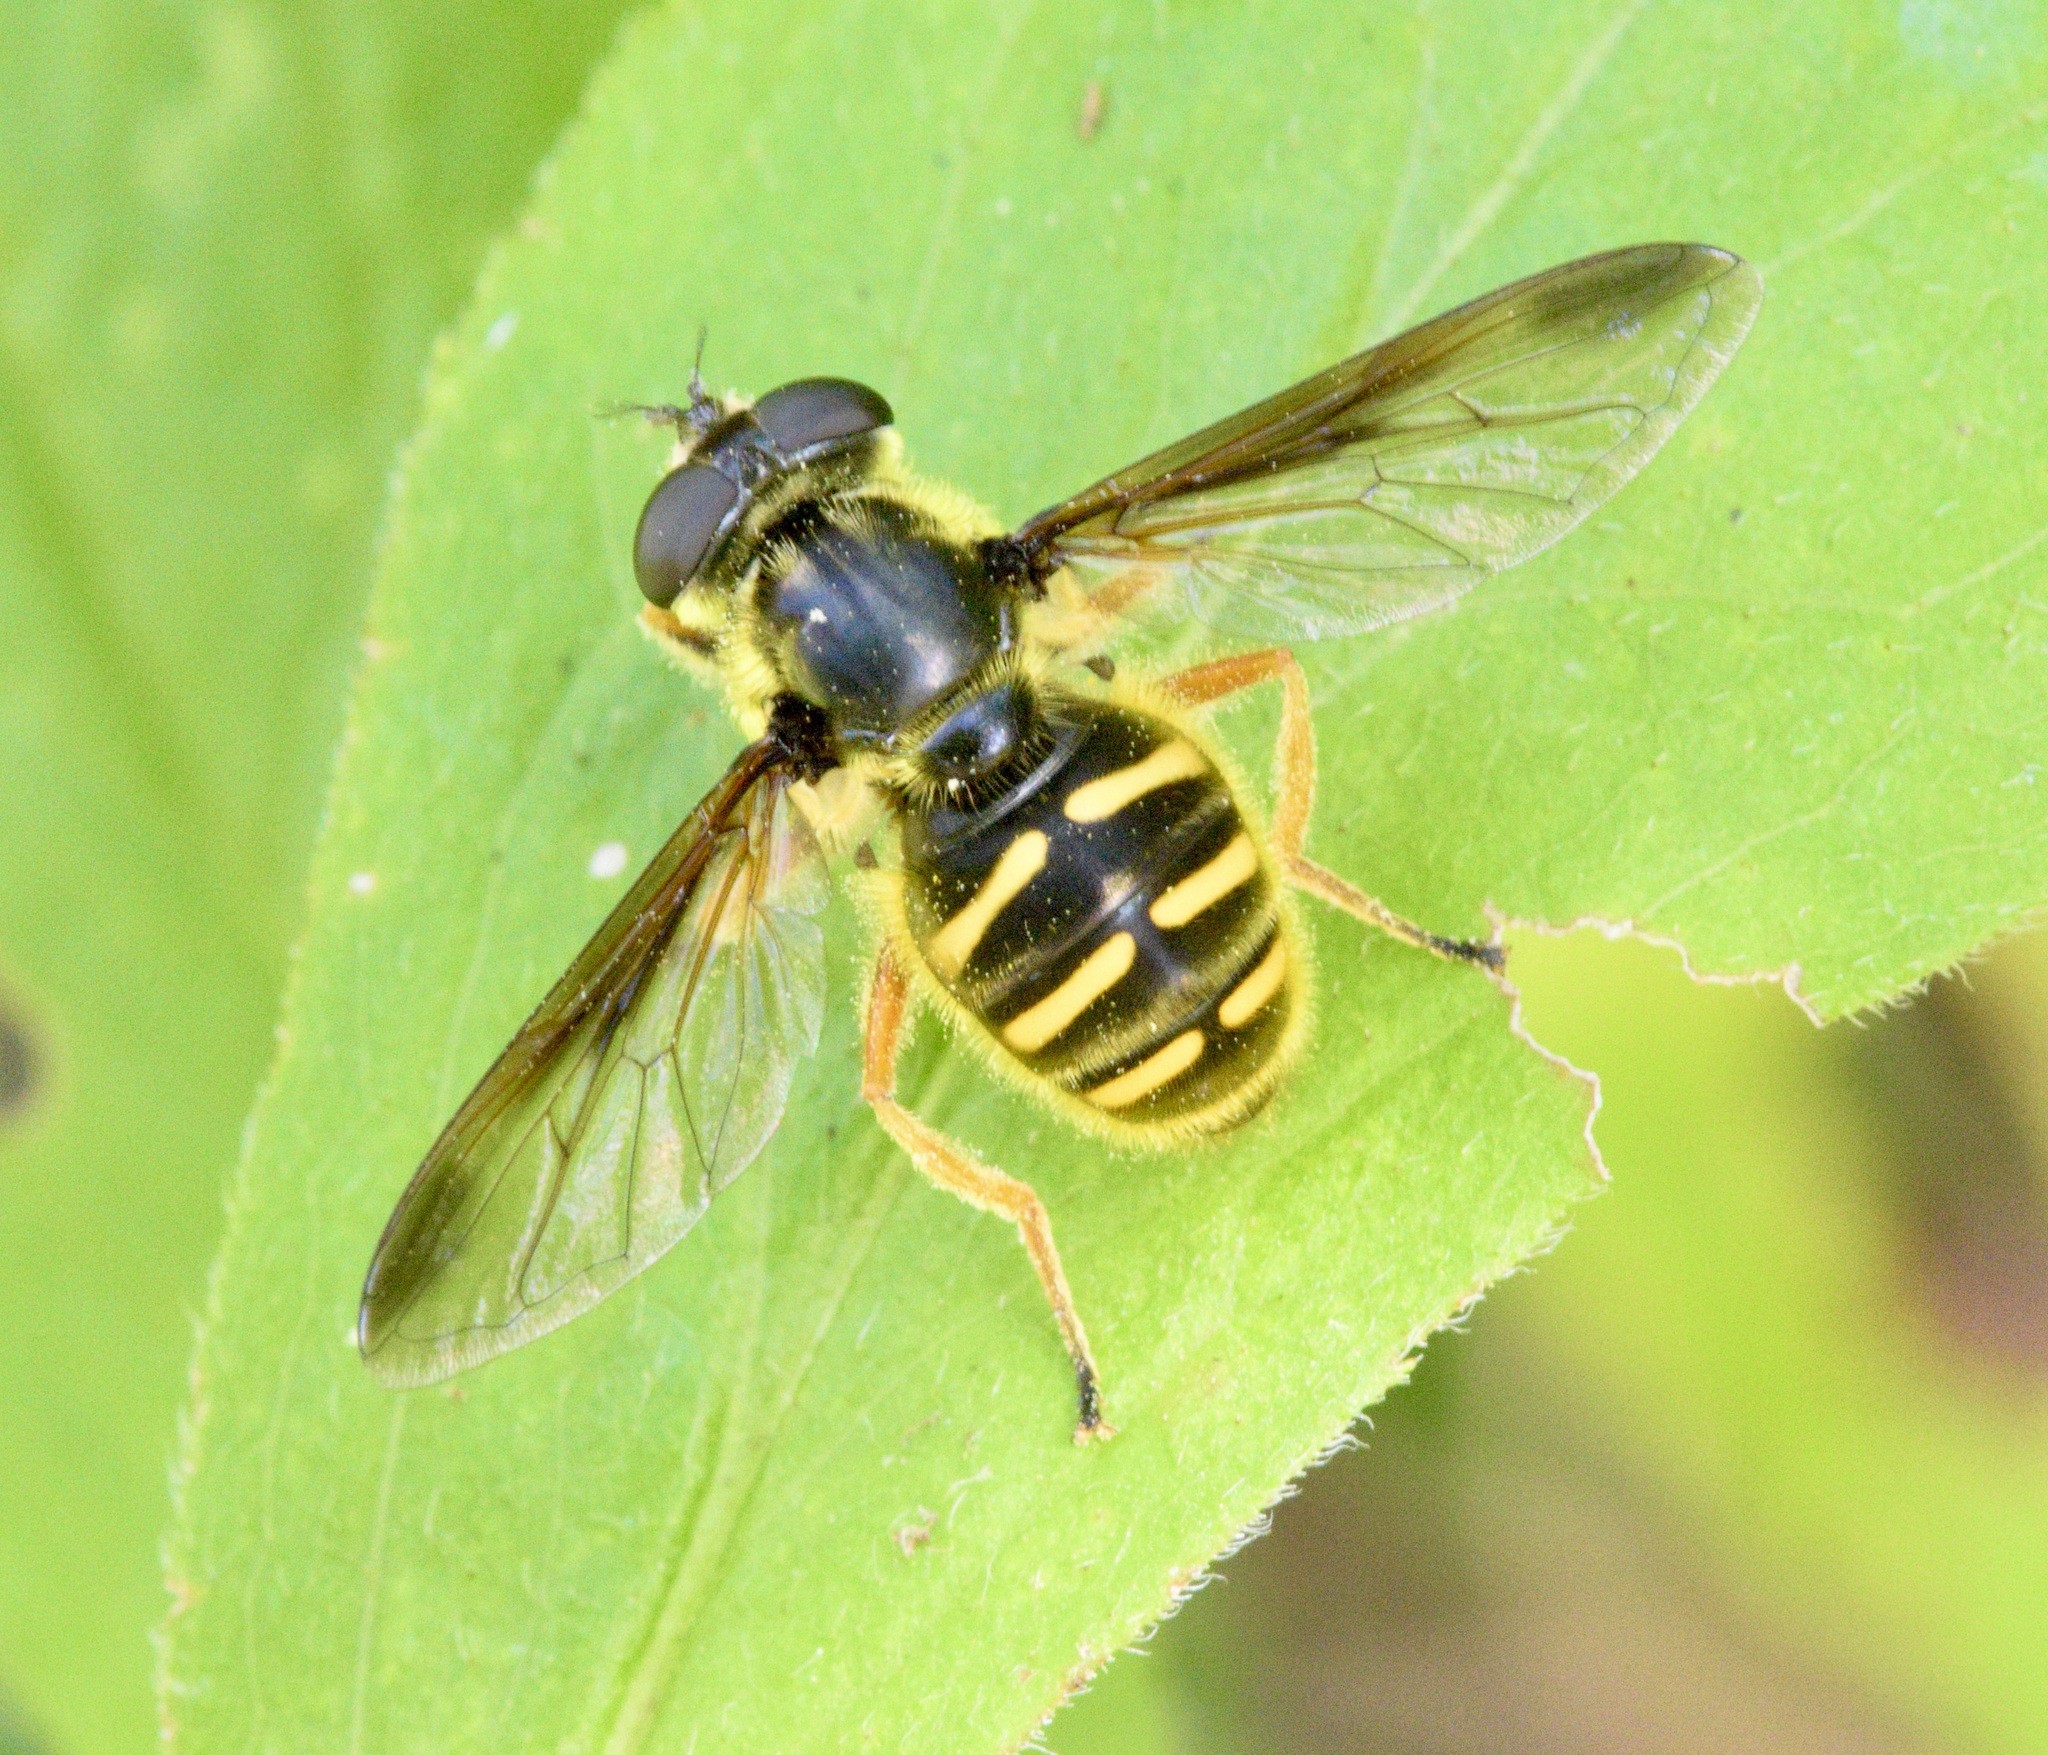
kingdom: Animalia
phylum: Arthropoda
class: Insecta
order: Diptera
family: Syrphidae
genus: Sericomyia
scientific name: Sericomyia chrysotoxoides
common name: Oblique-banded pond fly
